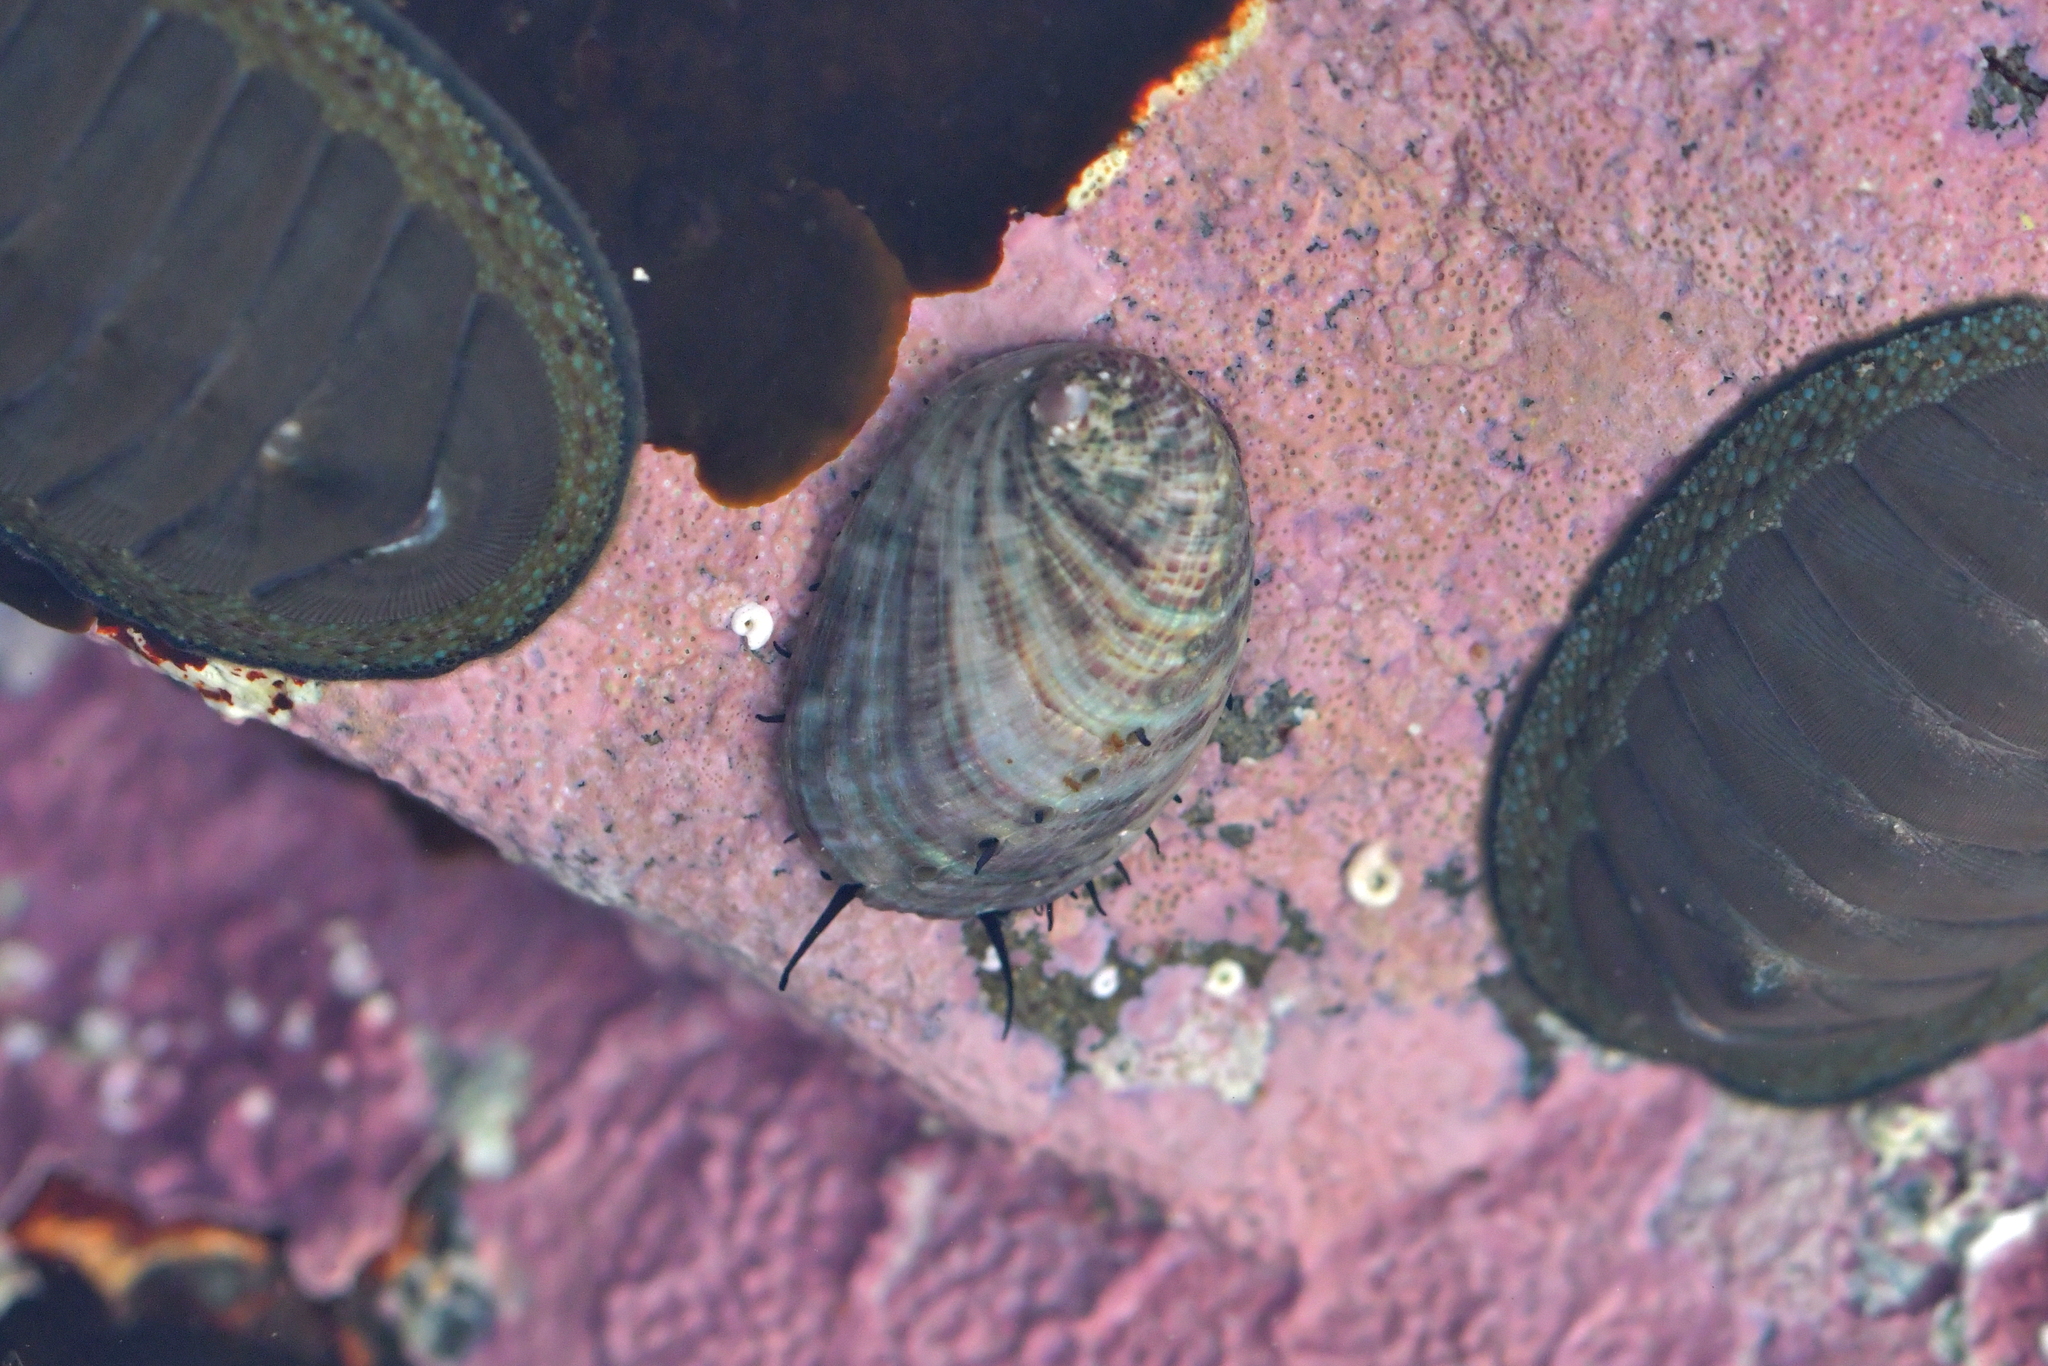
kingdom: Animalia
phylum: Mollusca
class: Gastropoda
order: Lepetellida
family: Haliotidae
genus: Haliotis
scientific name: Haliotis iris
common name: Abalone
